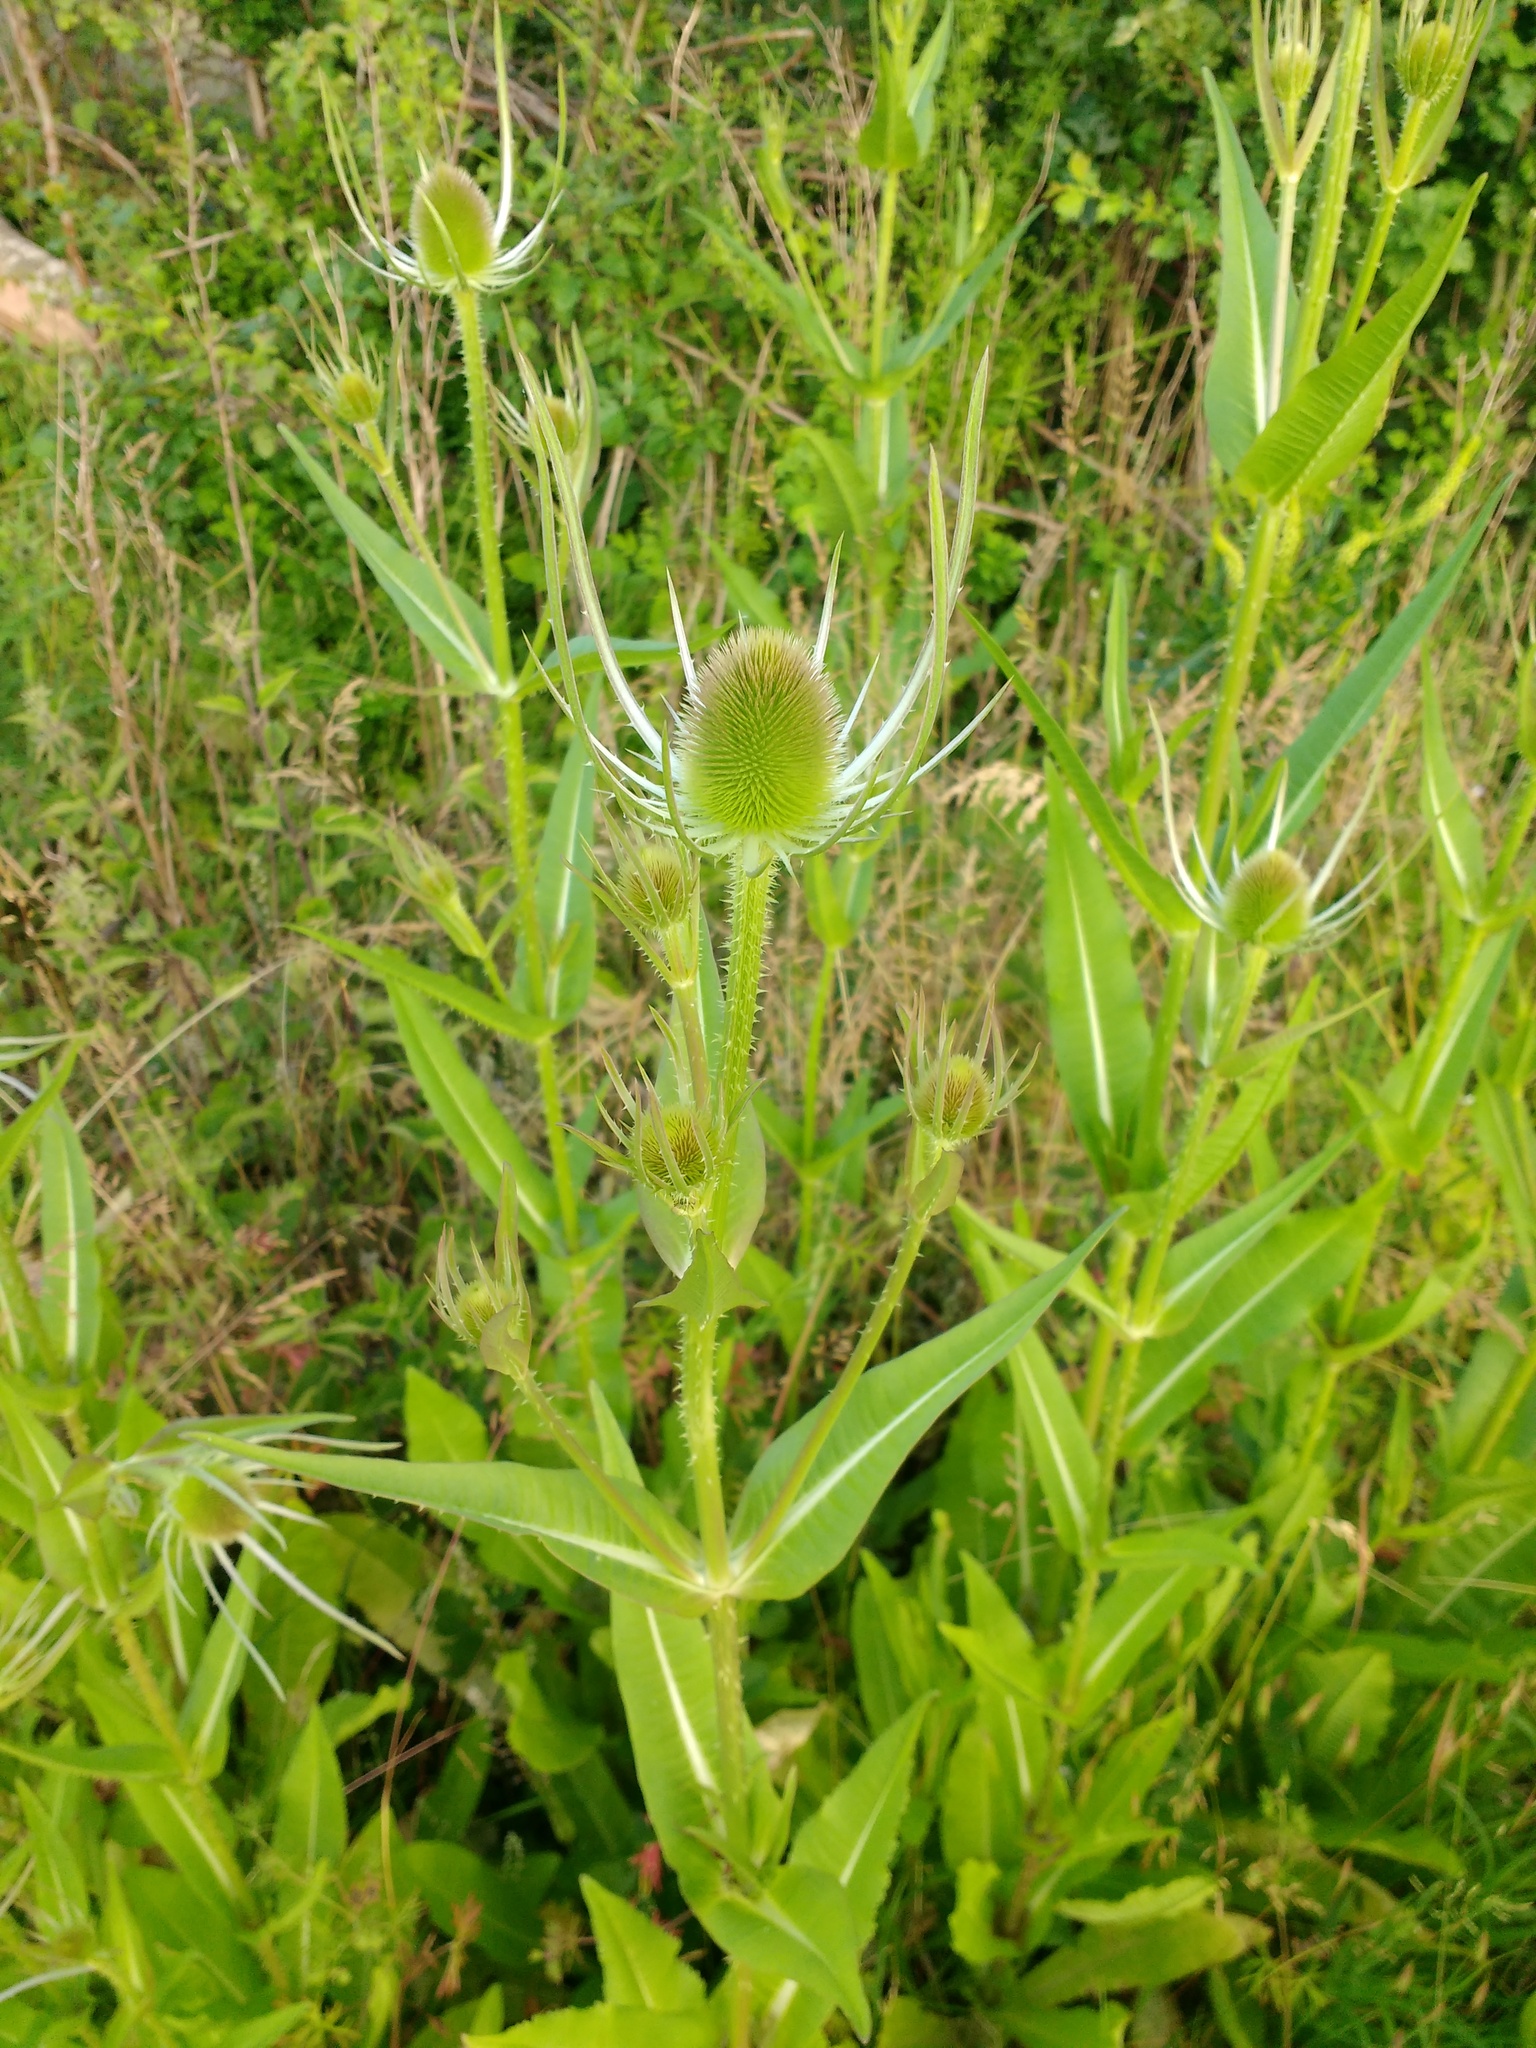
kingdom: Plantae
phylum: Tracheophyta
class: Magnoliopsida
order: Dipsacales
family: Caprifoliaceae
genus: Dipsacus
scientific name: Dipsacus fullonum
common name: Teasel
